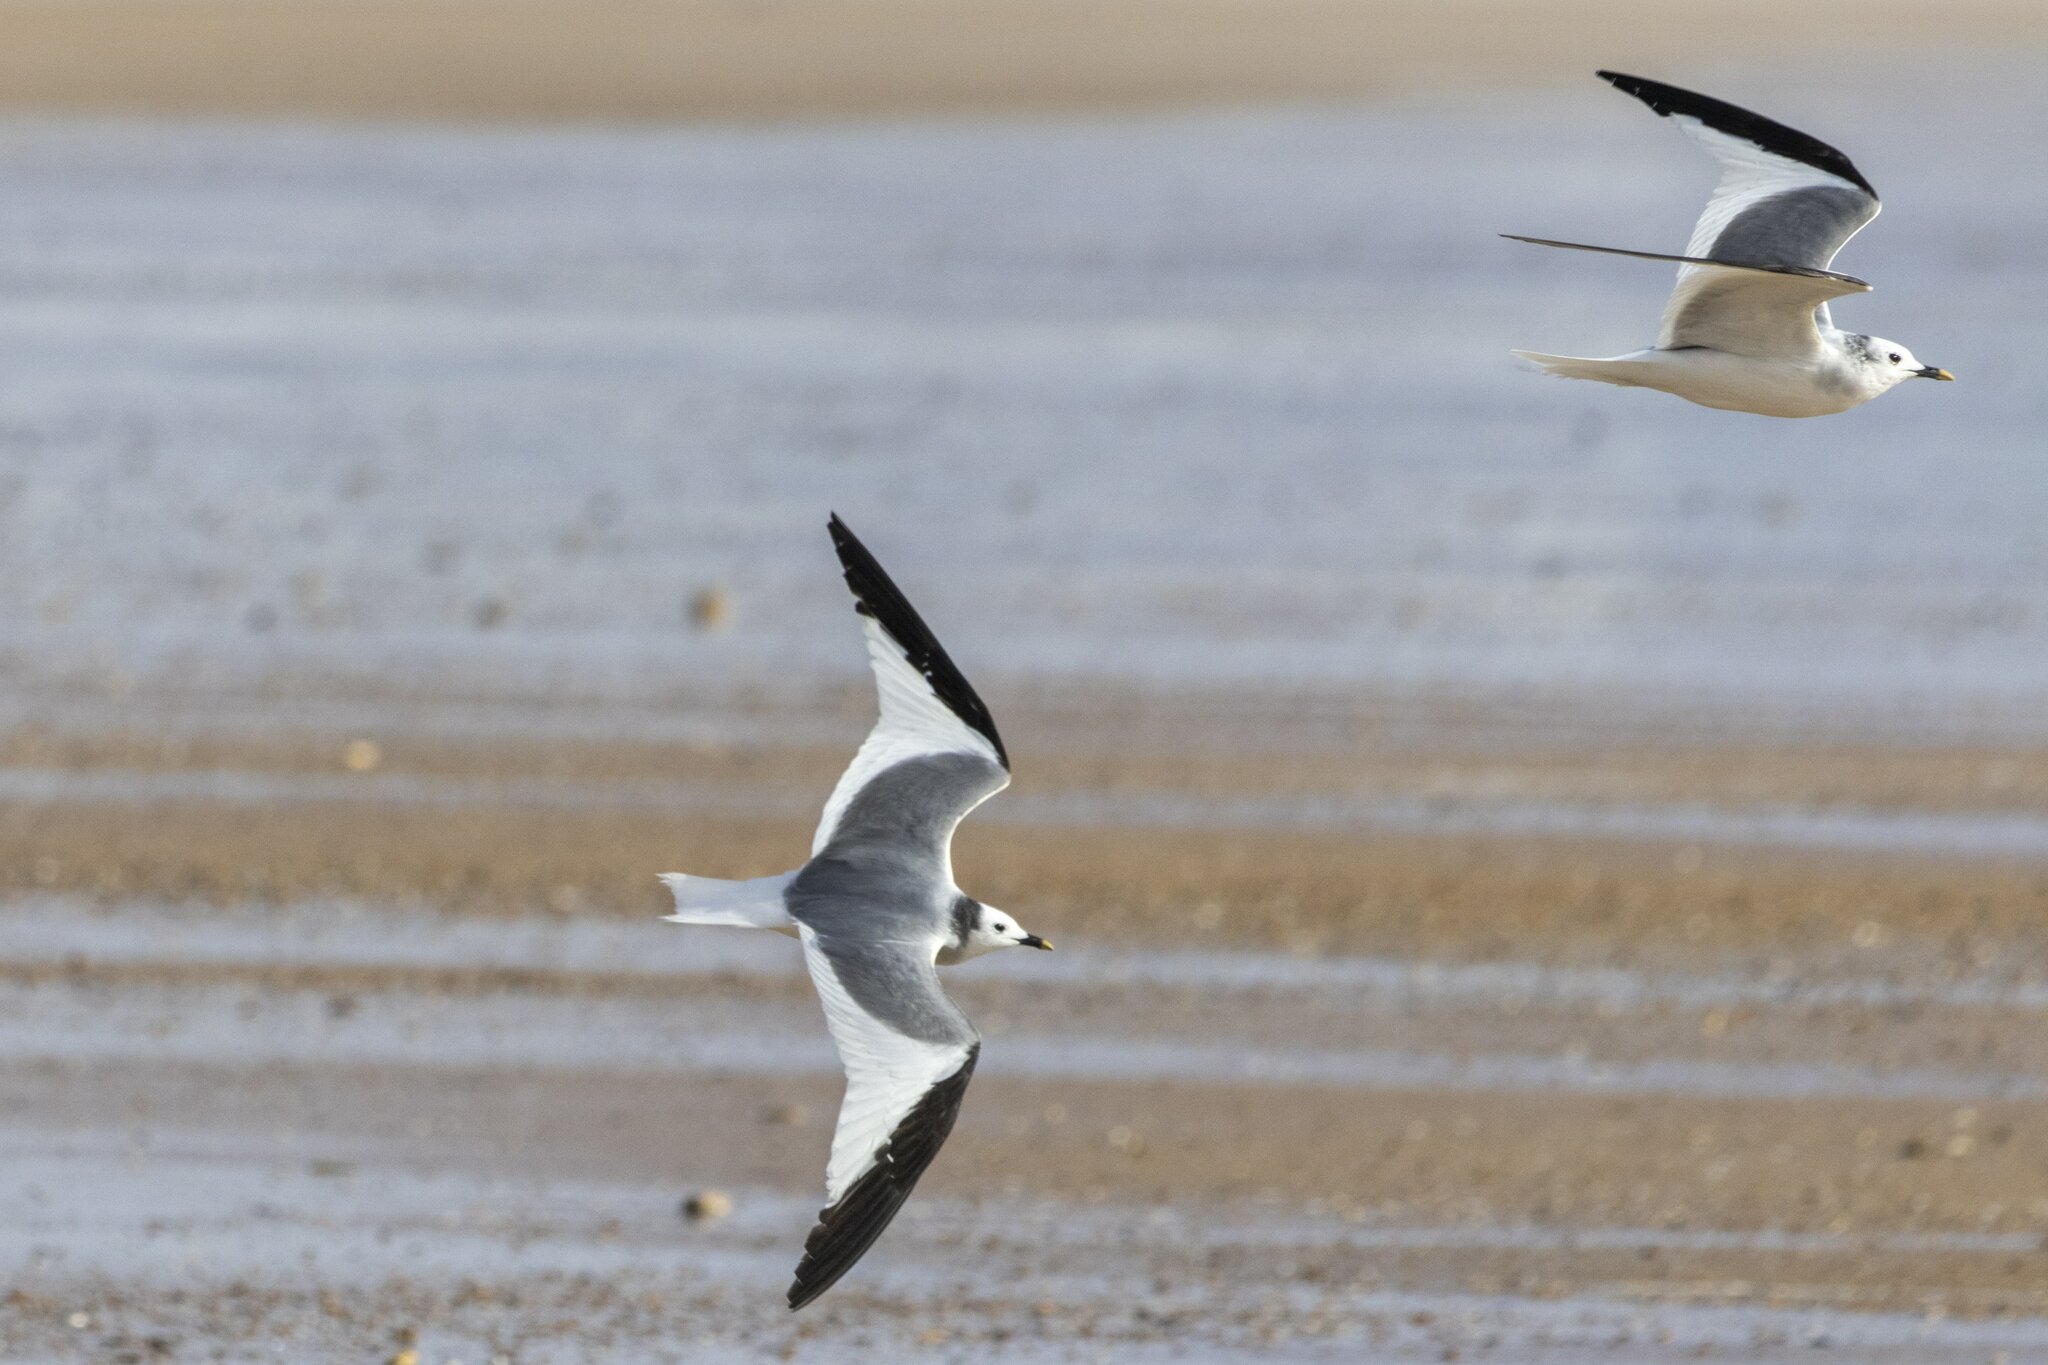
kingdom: Animalia
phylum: Chordata
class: Aves
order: Charadriiformes
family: Laridae
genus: Xema
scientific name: Xema sabini
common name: Sabine's gull
